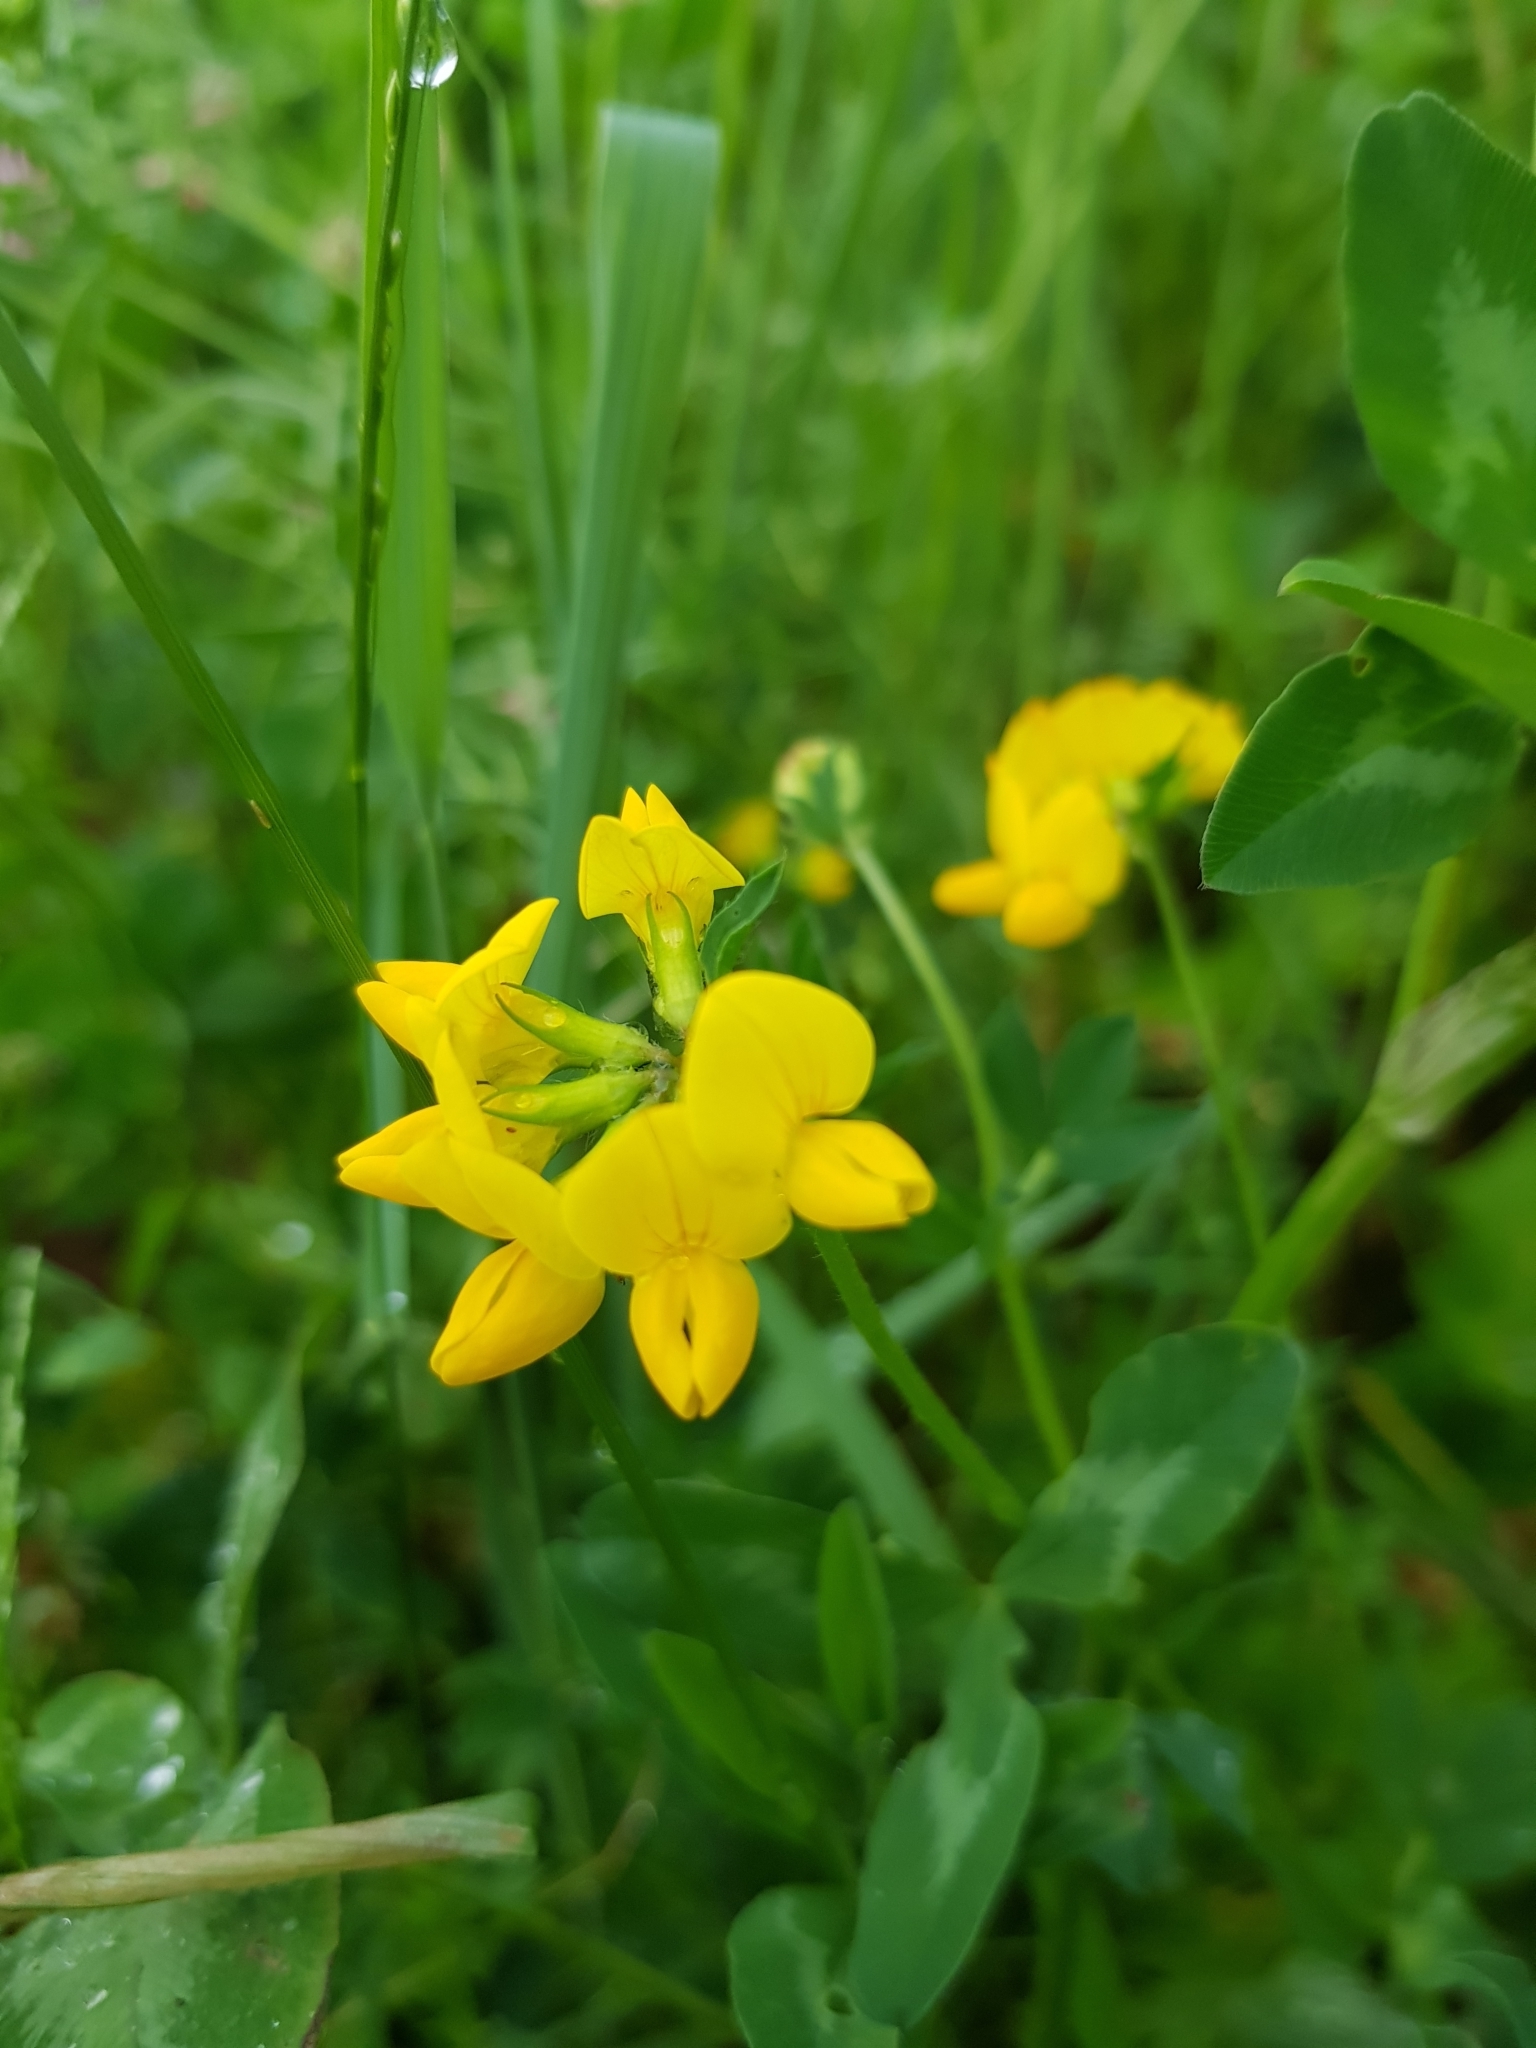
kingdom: Plantae
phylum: Tracheophyta
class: Magnoliopsida
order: Fabales
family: Fabaceae
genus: Lotus
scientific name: Lotus corniculatus
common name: Common bird's-foot-trefoil
